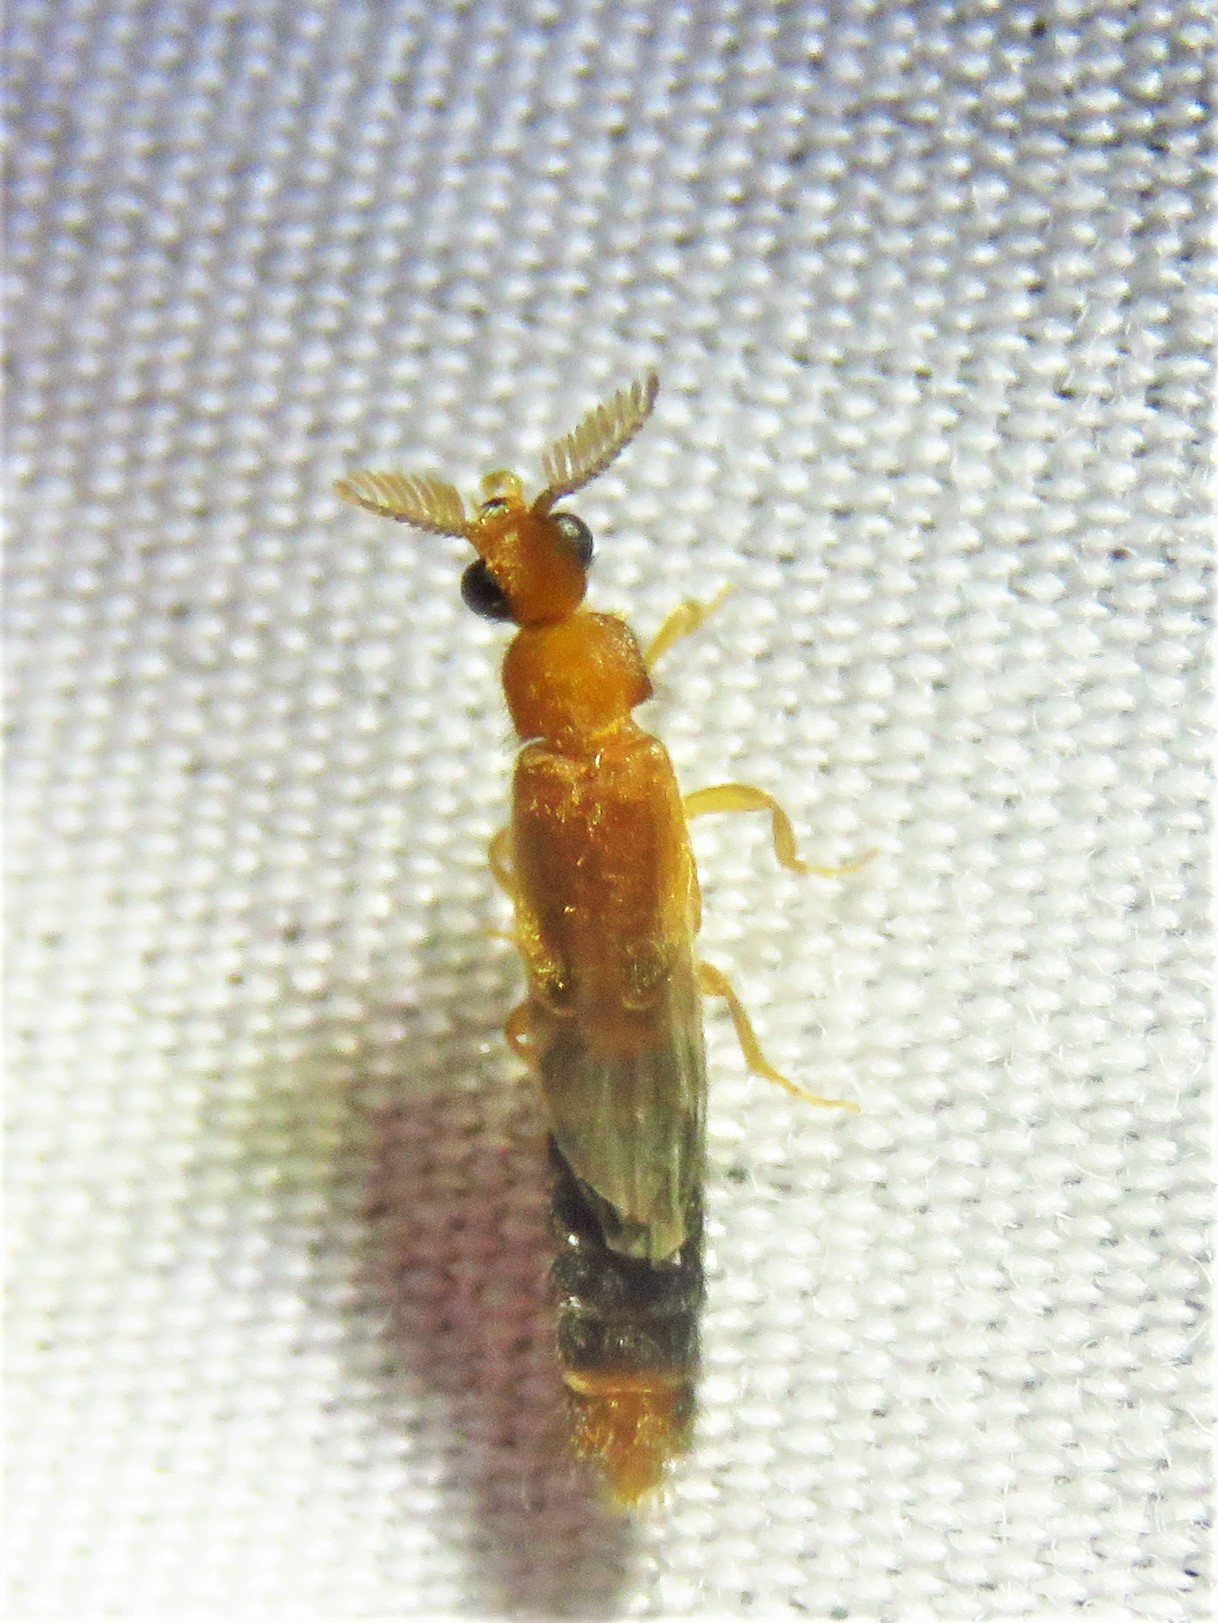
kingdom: Animalia
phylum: Arthropoda
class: Insecta
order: Coleoptera
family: Phengodidae
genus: Distremocephalus
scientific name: Distremocephalus texanus
